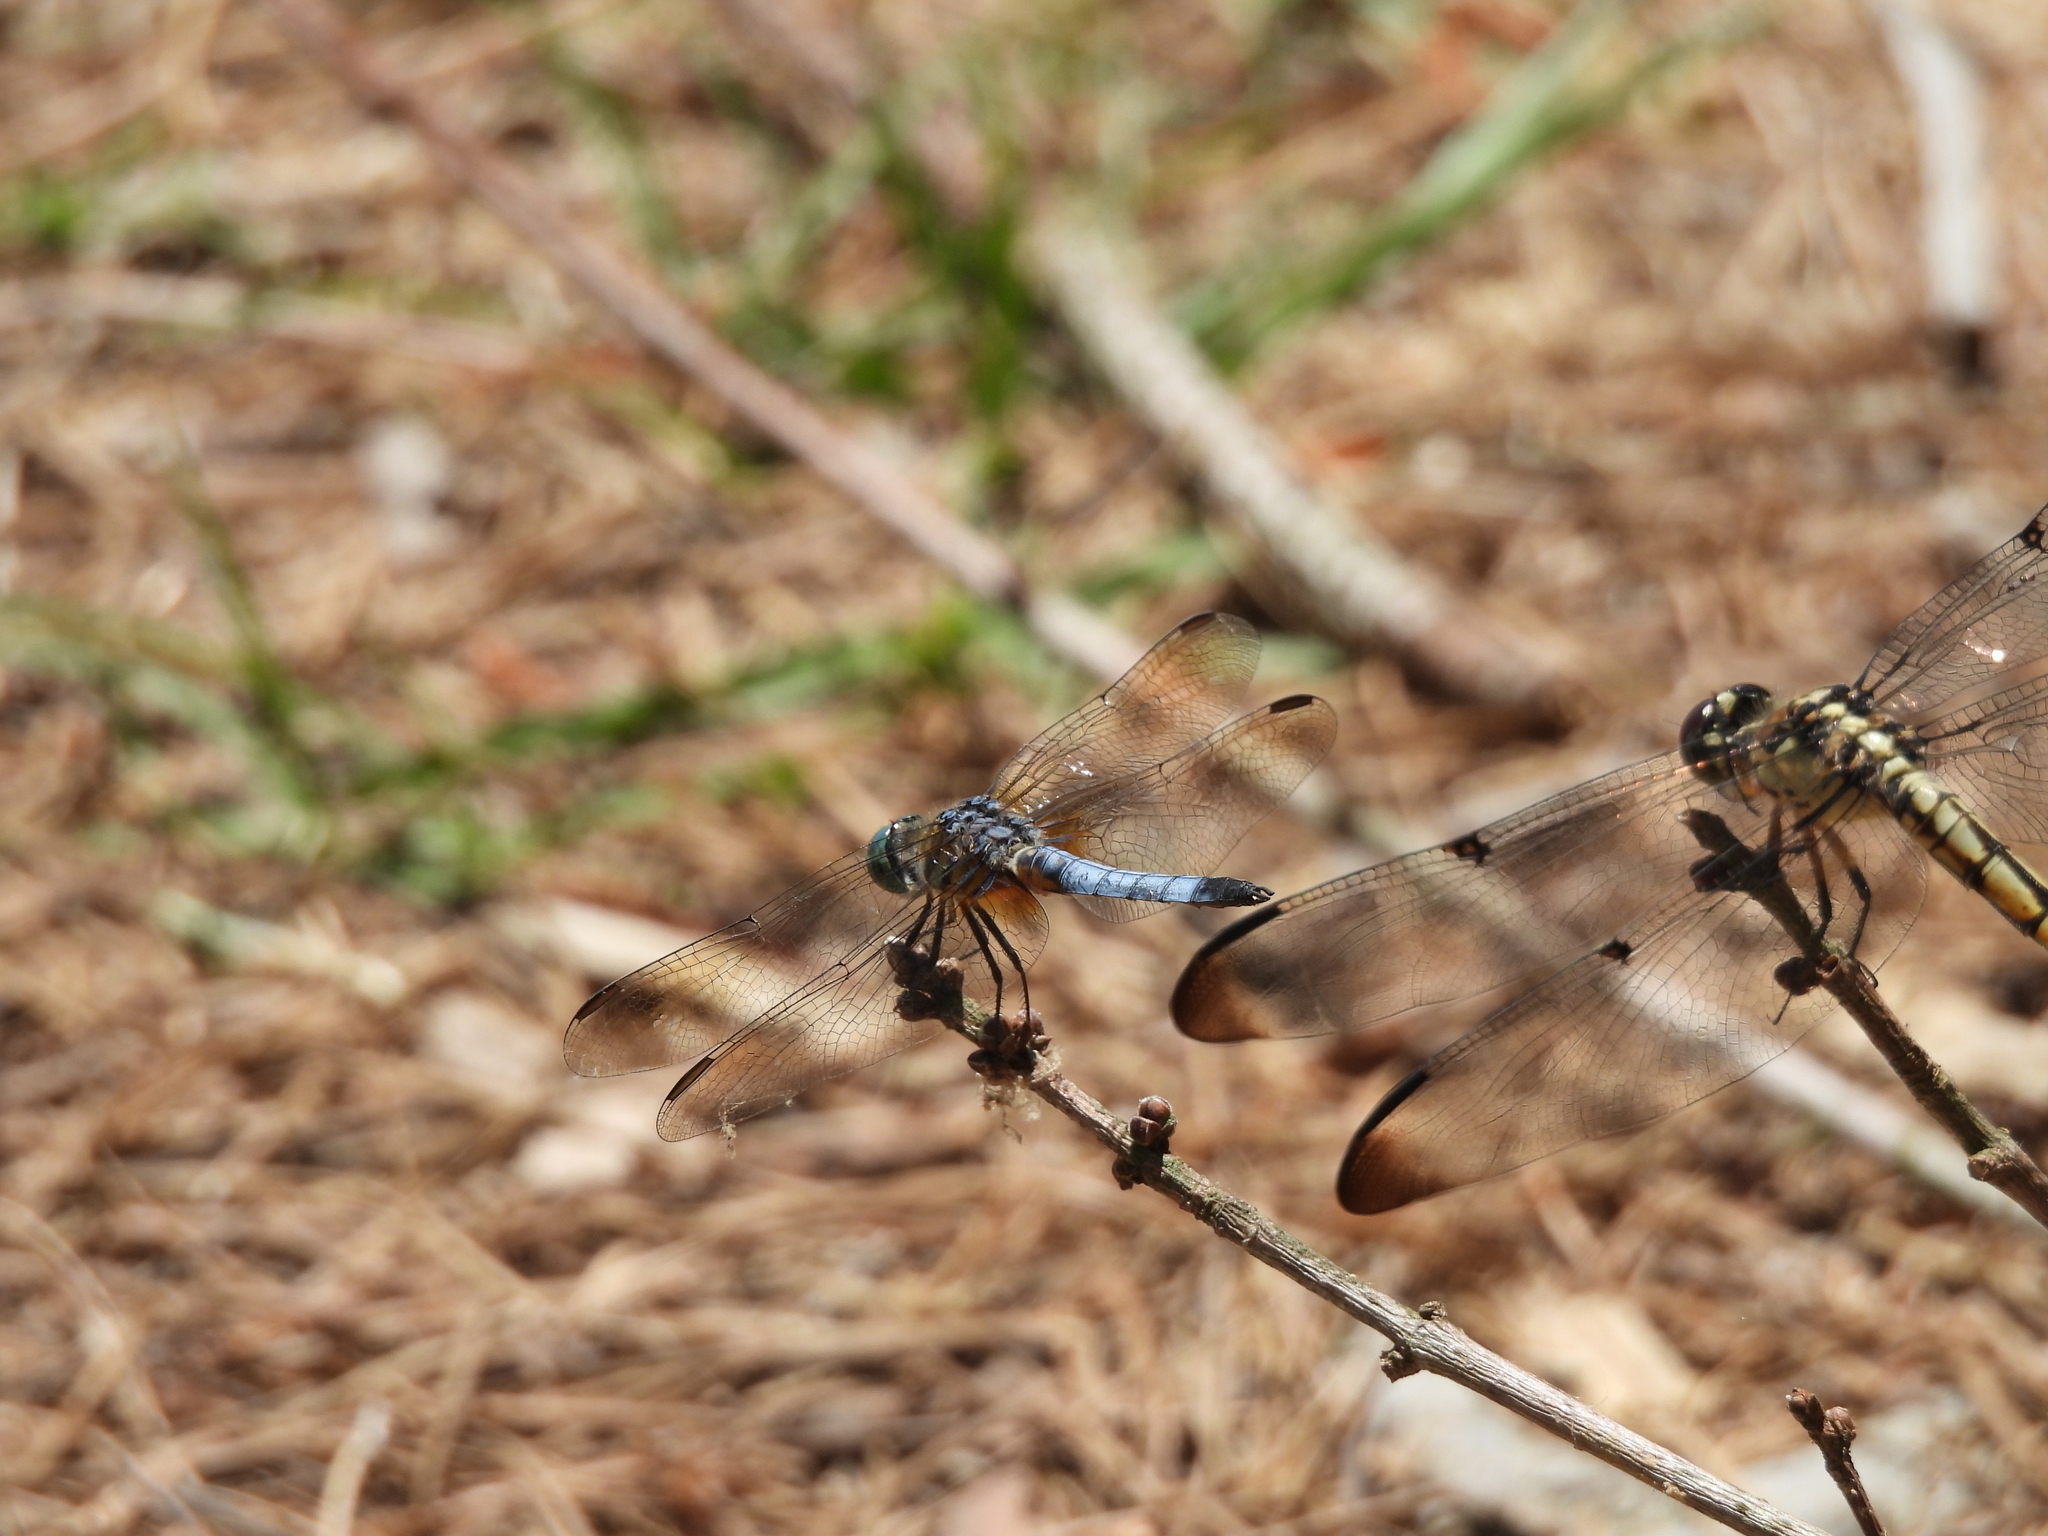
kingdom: Animalia
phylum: Arthropoda
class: Insecta
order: Odonata
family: Libellulidae
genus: Pachydiplax
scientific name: Pachydiplax longipennis
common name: Blue dasher
